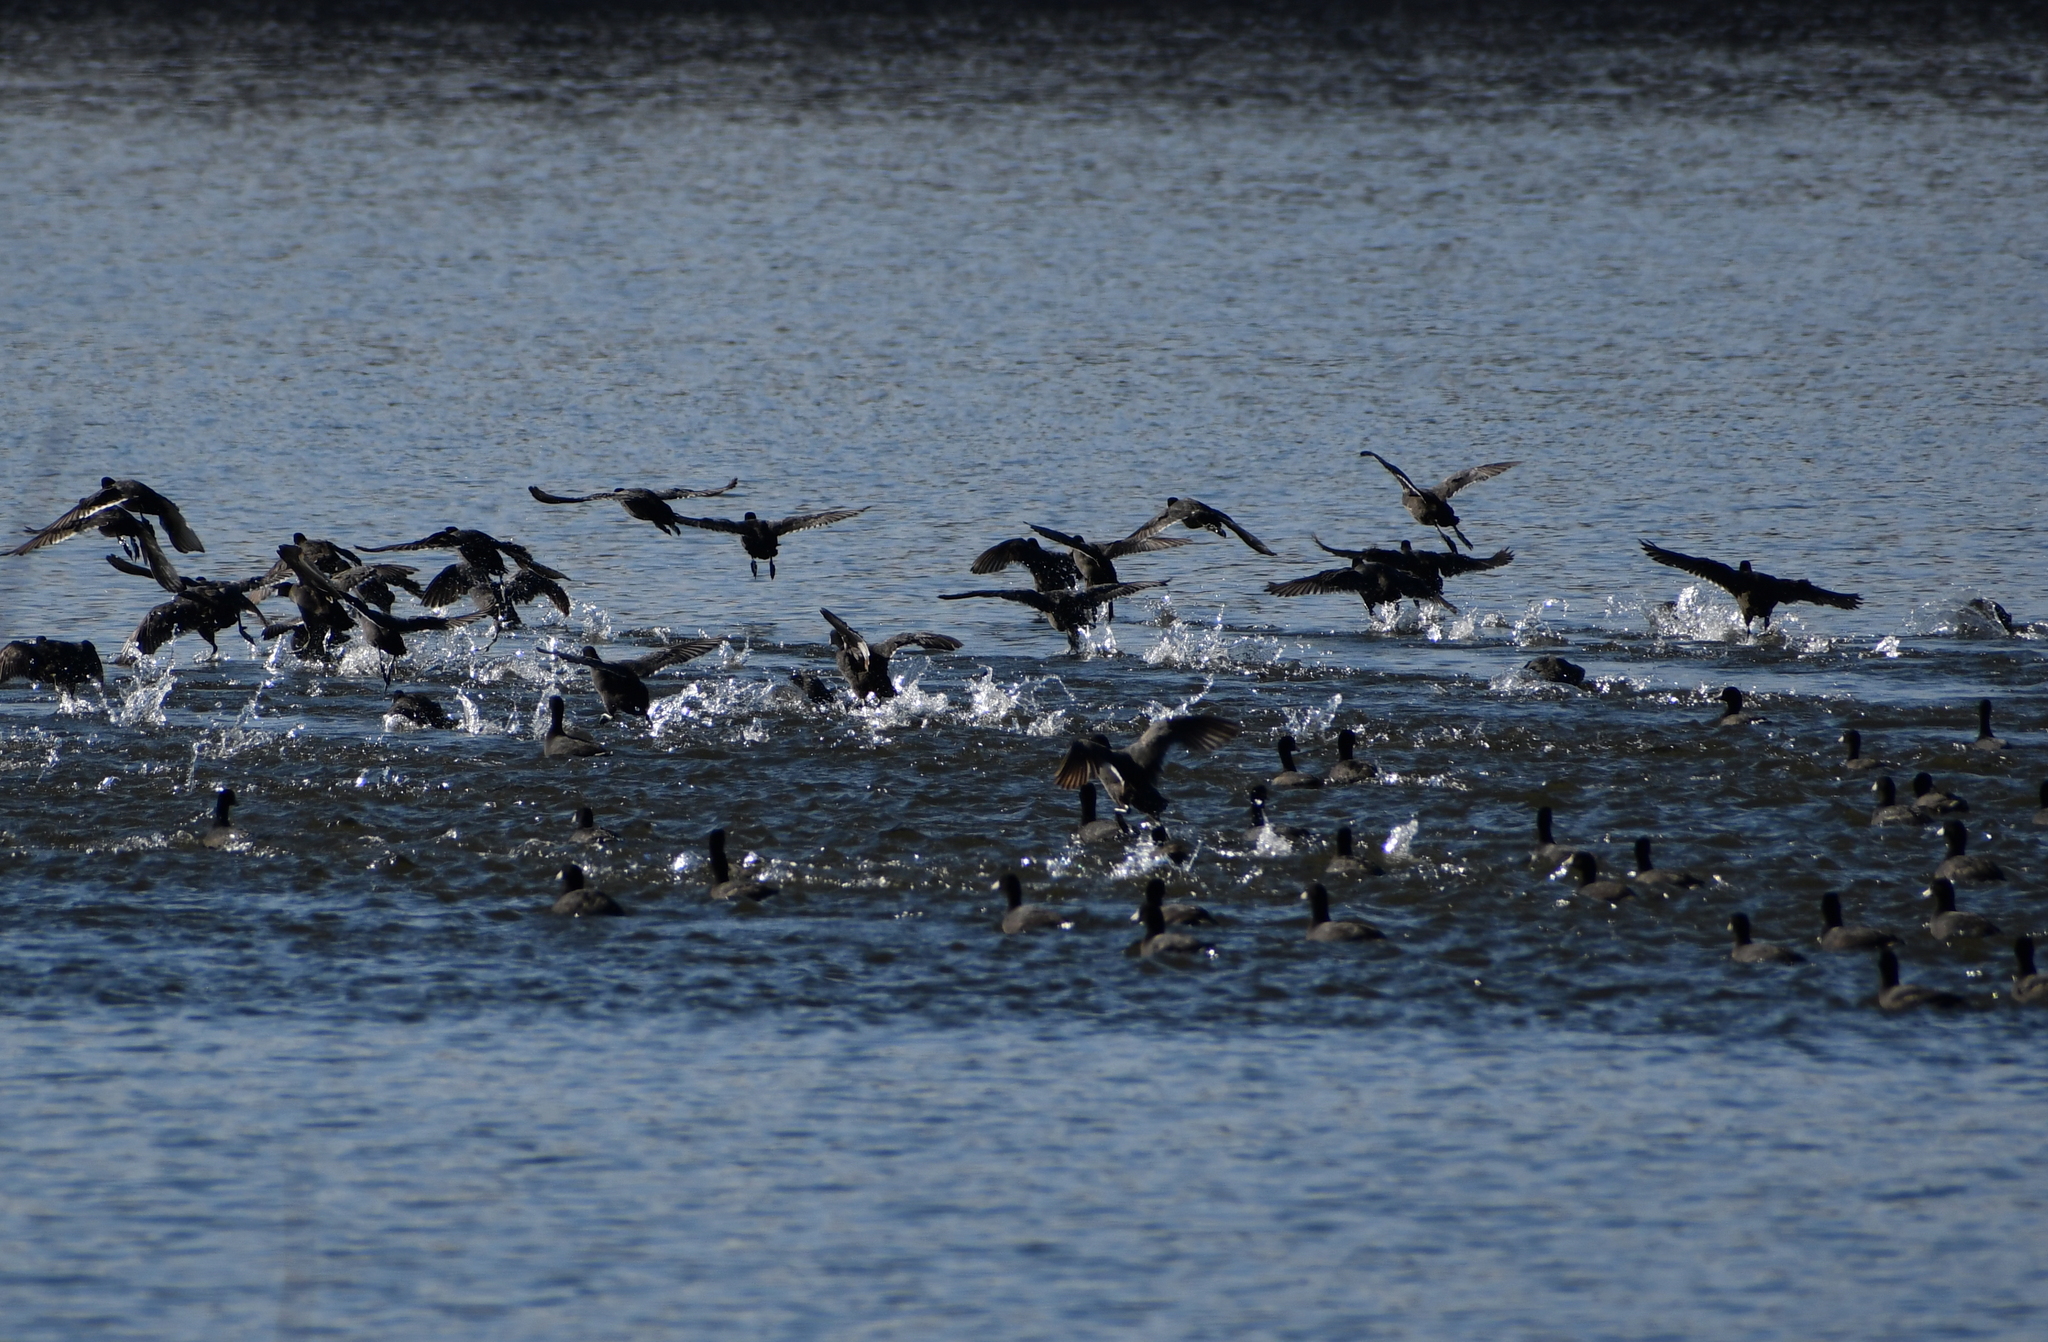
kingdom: Animalia
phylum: Chordata
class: Aves
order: Gruiformes
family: Rallidae
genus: Fulica
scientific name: Fulica americana
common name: American coot
